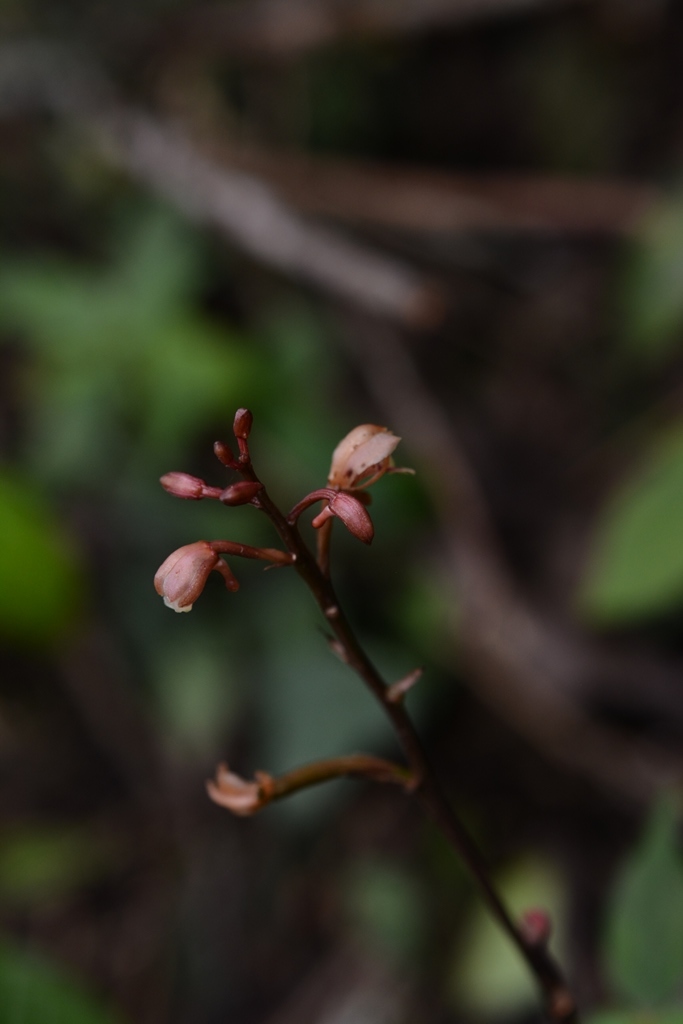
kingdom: Plantae
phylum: Tracheophyta
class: Liliopsida
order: Asparagales
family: Orchidaceae
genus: Eulophia
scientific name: Eulophia maculata
